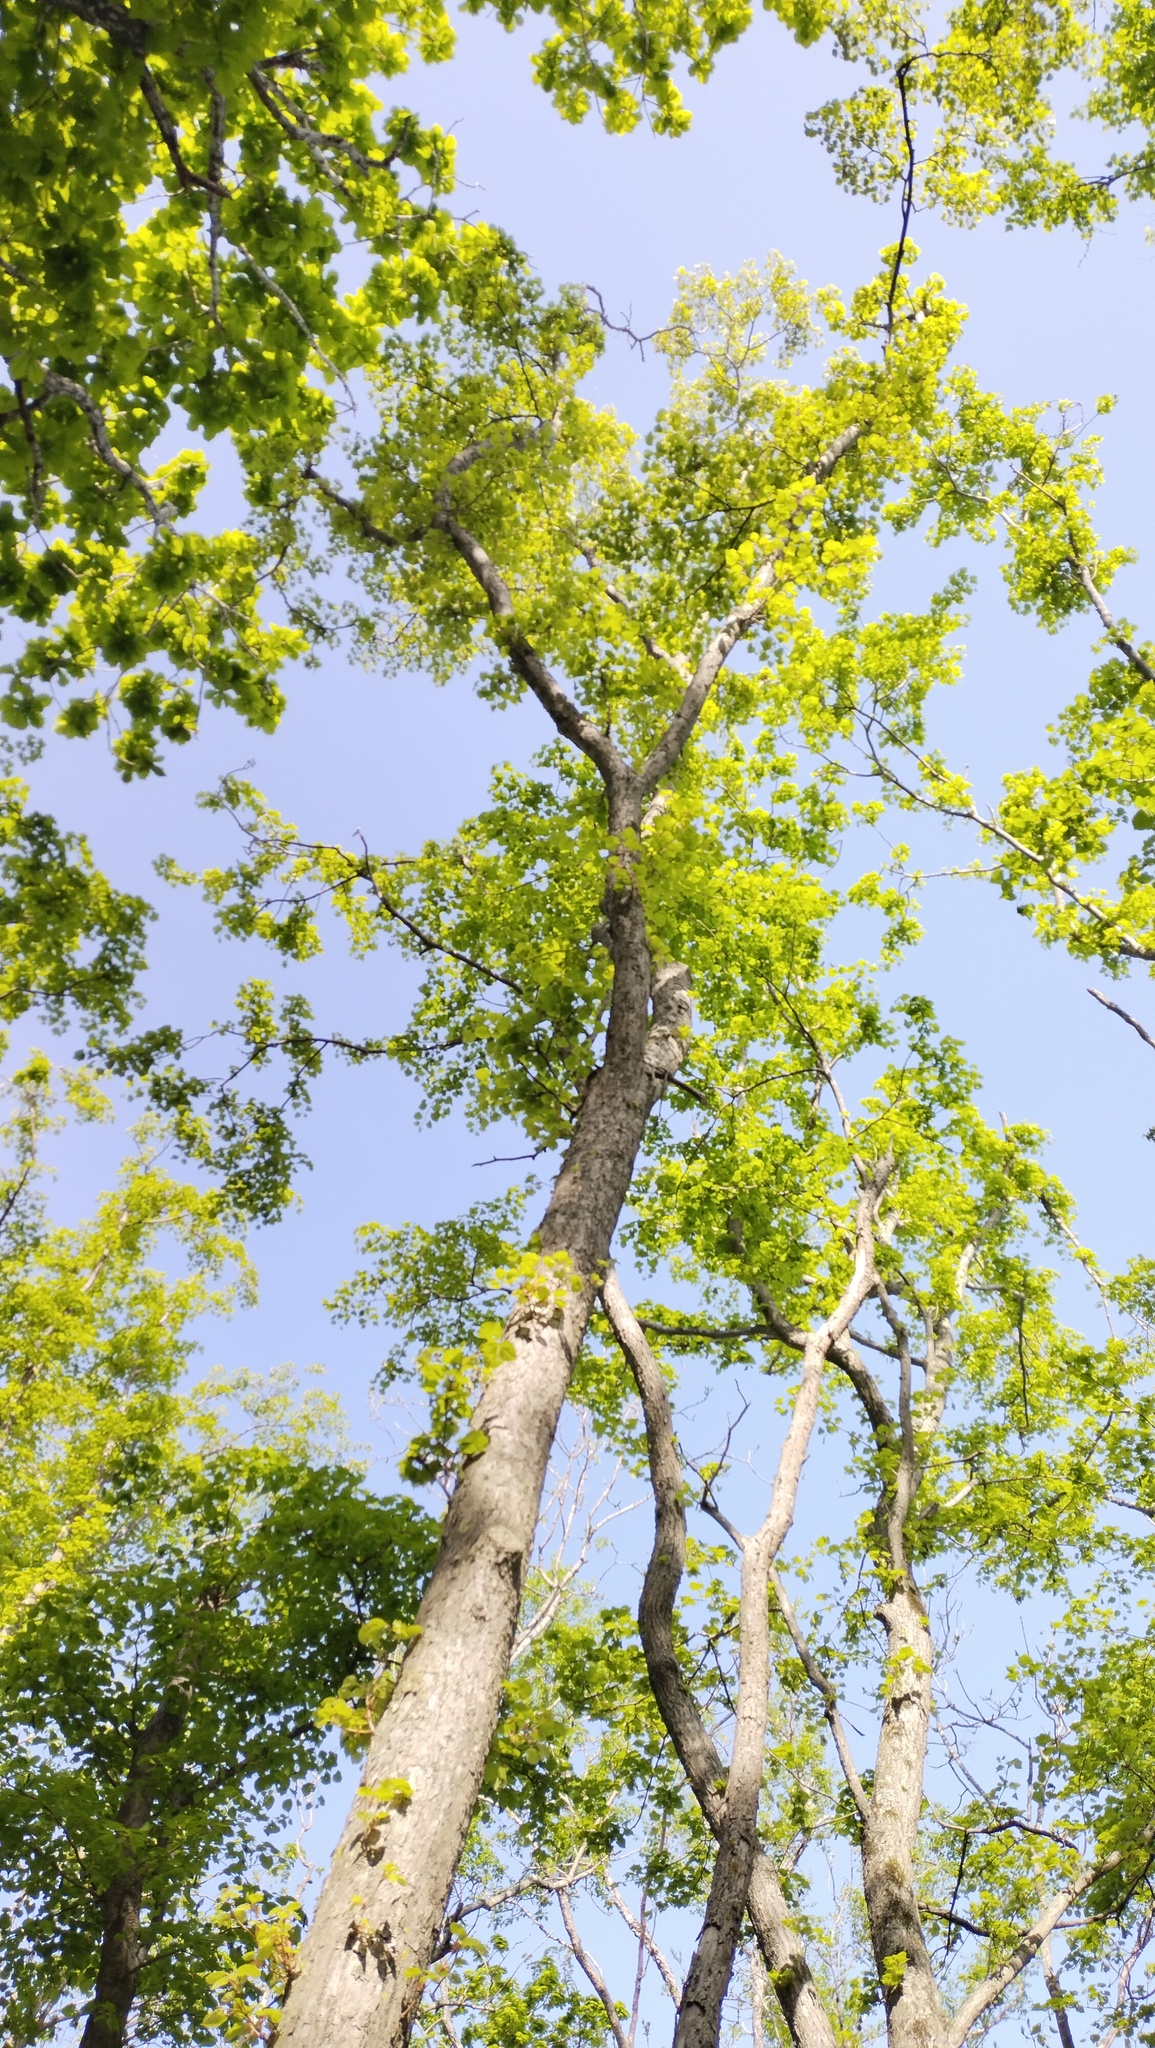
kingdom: Plantae
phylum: Tracheophyta
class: Magnoliopsida
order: Malvales
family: Malvaceae
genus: Tilia
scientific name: Tilia amurensis
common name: Amur lime
